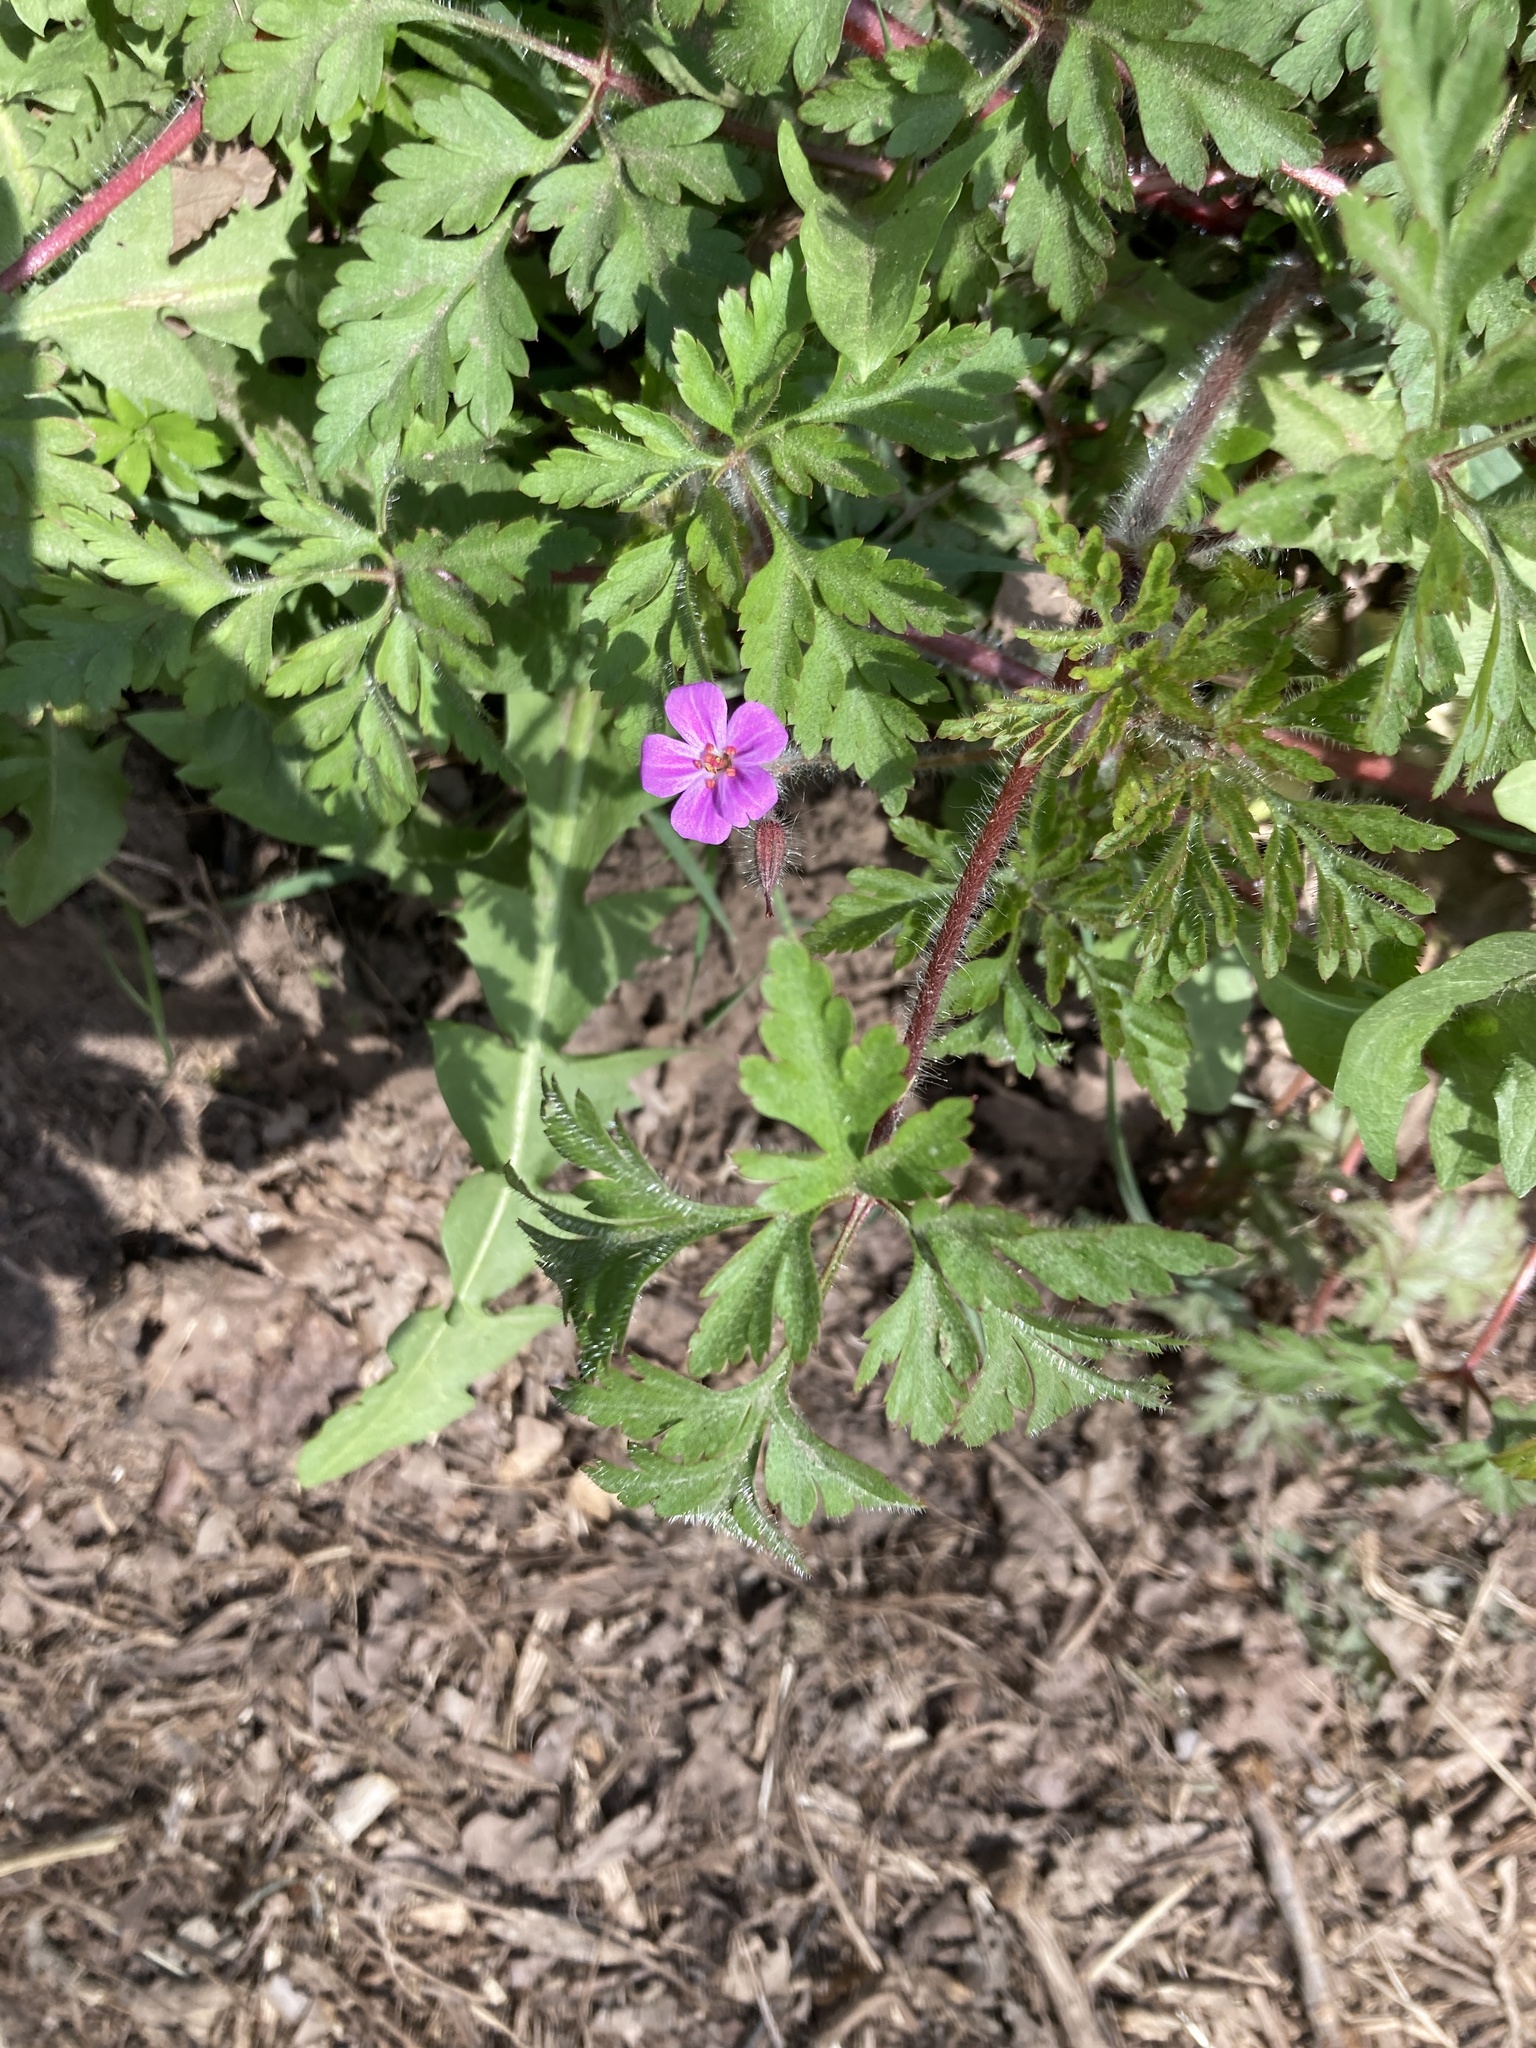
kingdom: Plantae
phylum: Tracheophyta
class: Magnoliopsida
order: Geraniales
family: Geraniaceae
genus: Geranium
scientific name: Geranium robertianum
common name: Herb-robert
